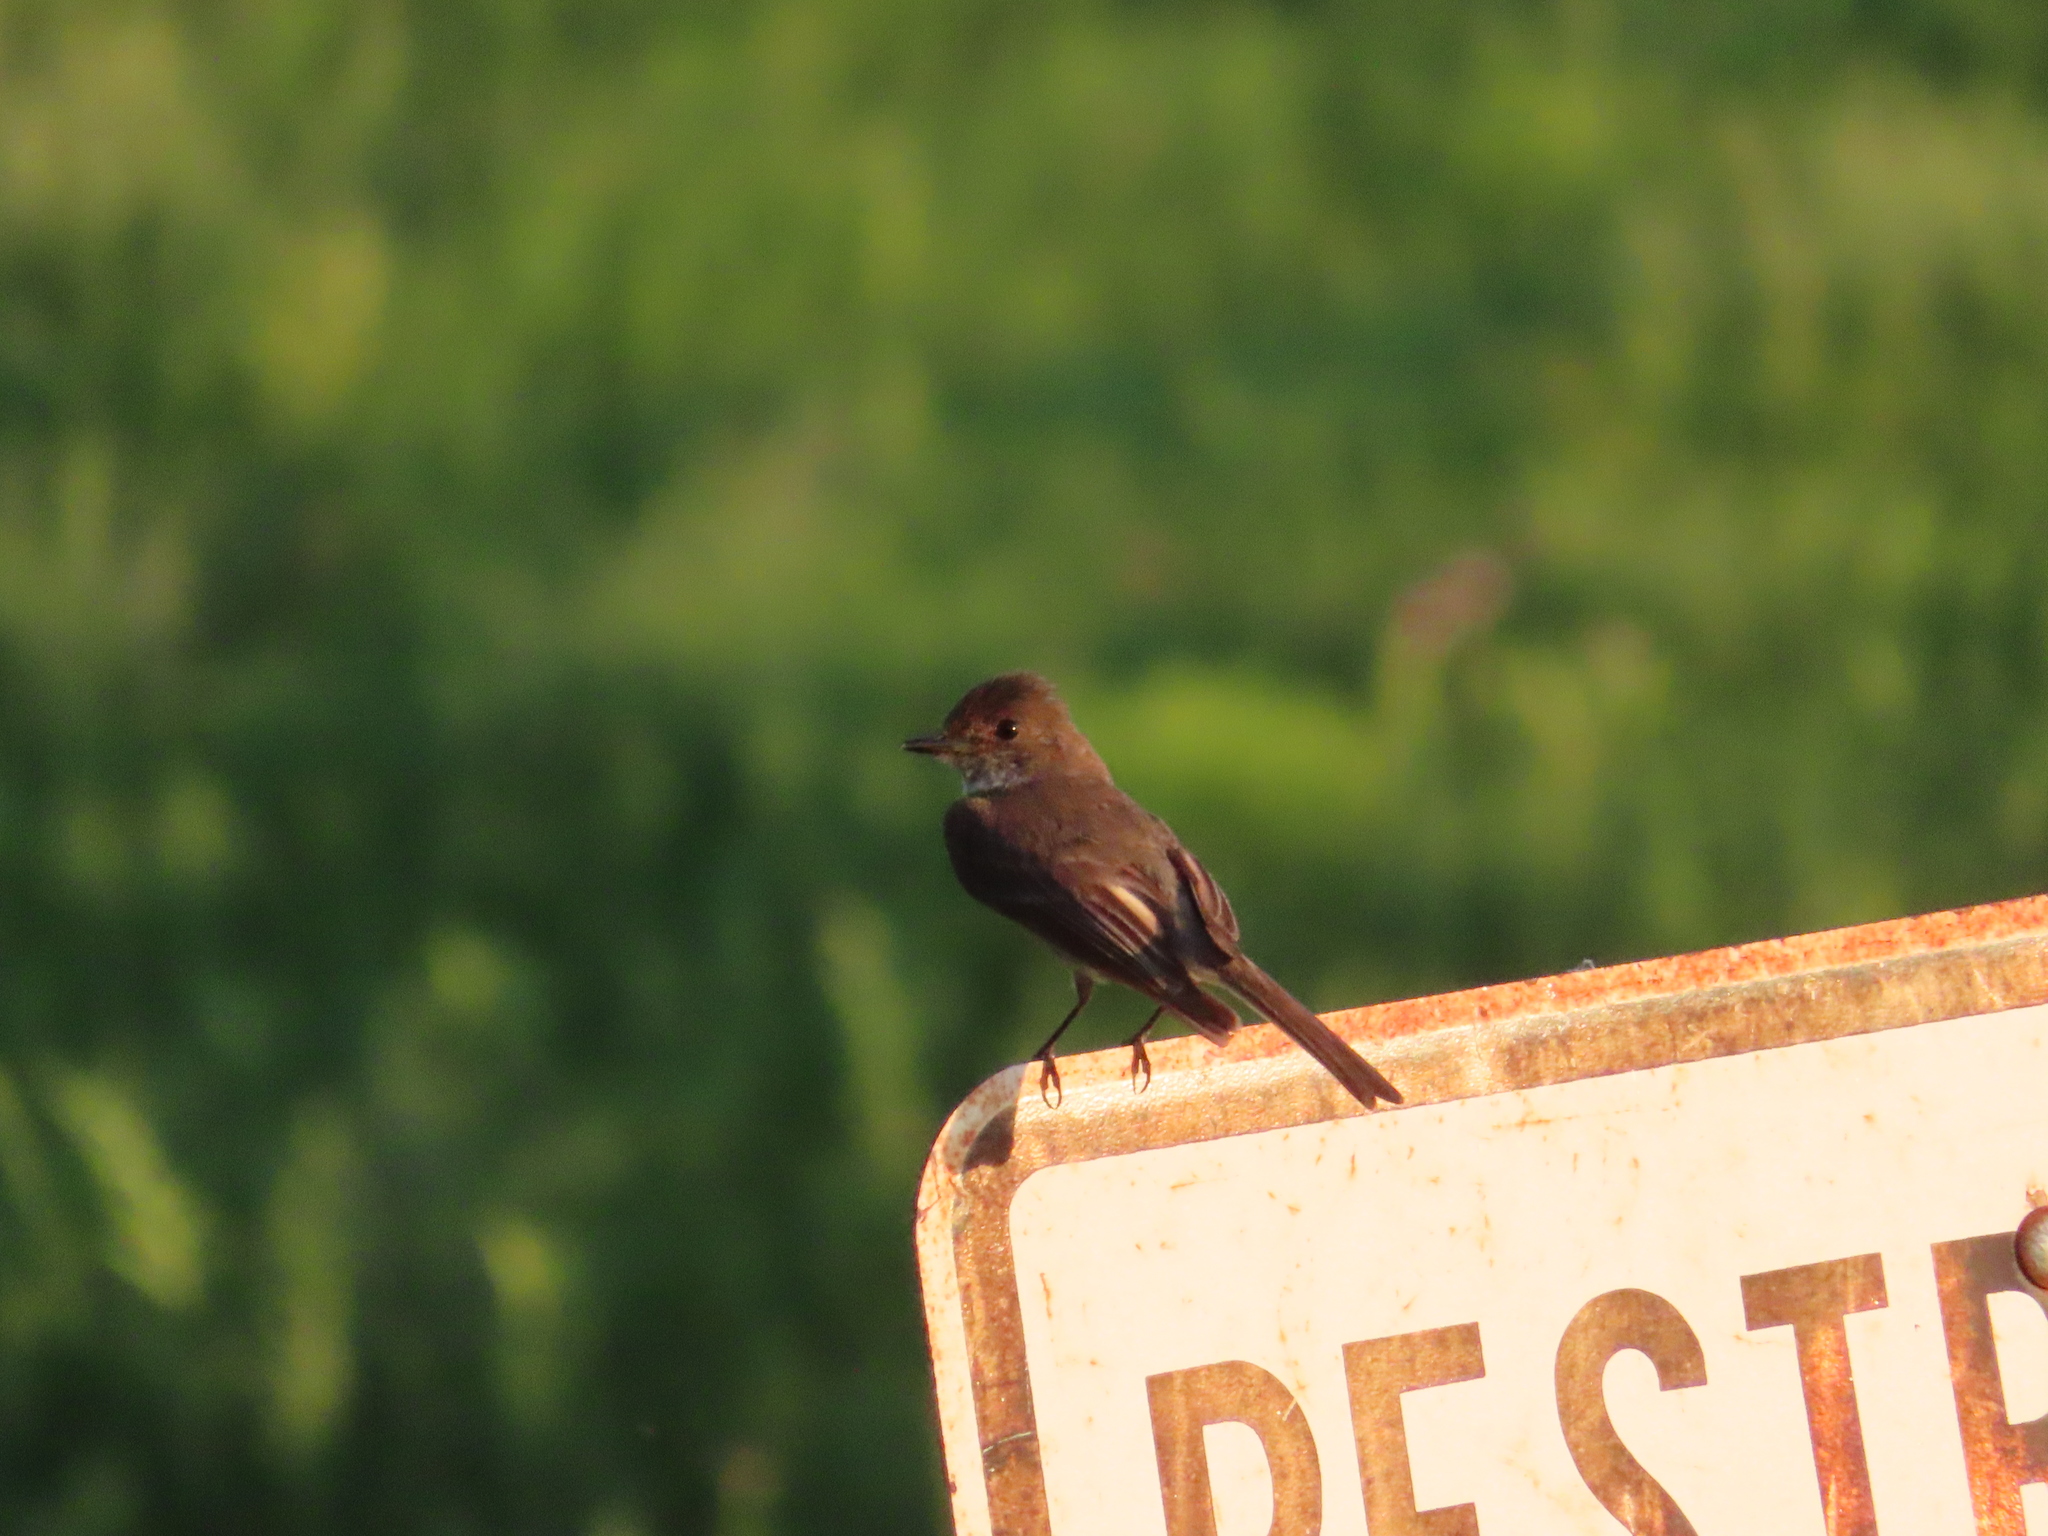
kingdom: Animalia
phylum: Chordata
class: Aves
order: Passeriformes
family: Tyrannidae
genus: Sayornis
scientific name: Sayornis phoebe
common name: Eastern phoebe
